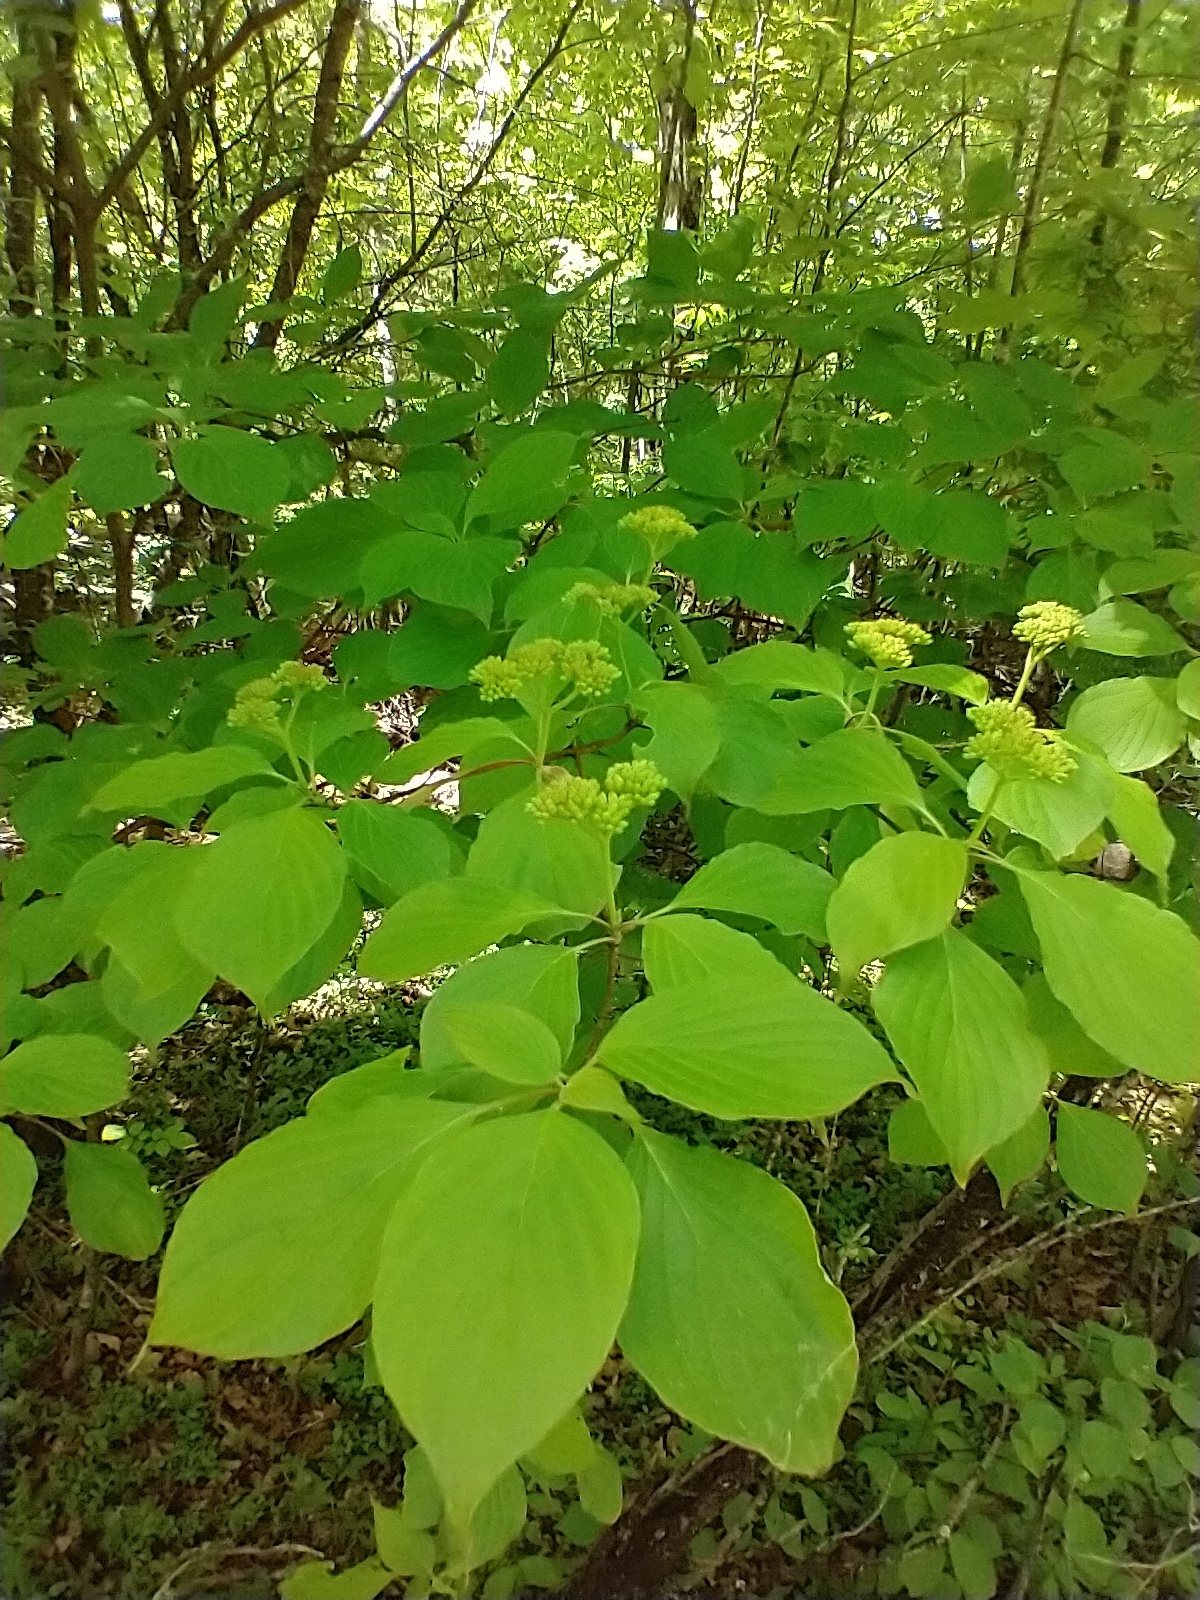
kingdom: Plantae
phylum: Tracheophyta
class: Magnoliopsida
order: Cornales
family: Cornaceae
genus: Cornus
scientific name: Cornus alternifolia
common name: Pagoda dogwood
